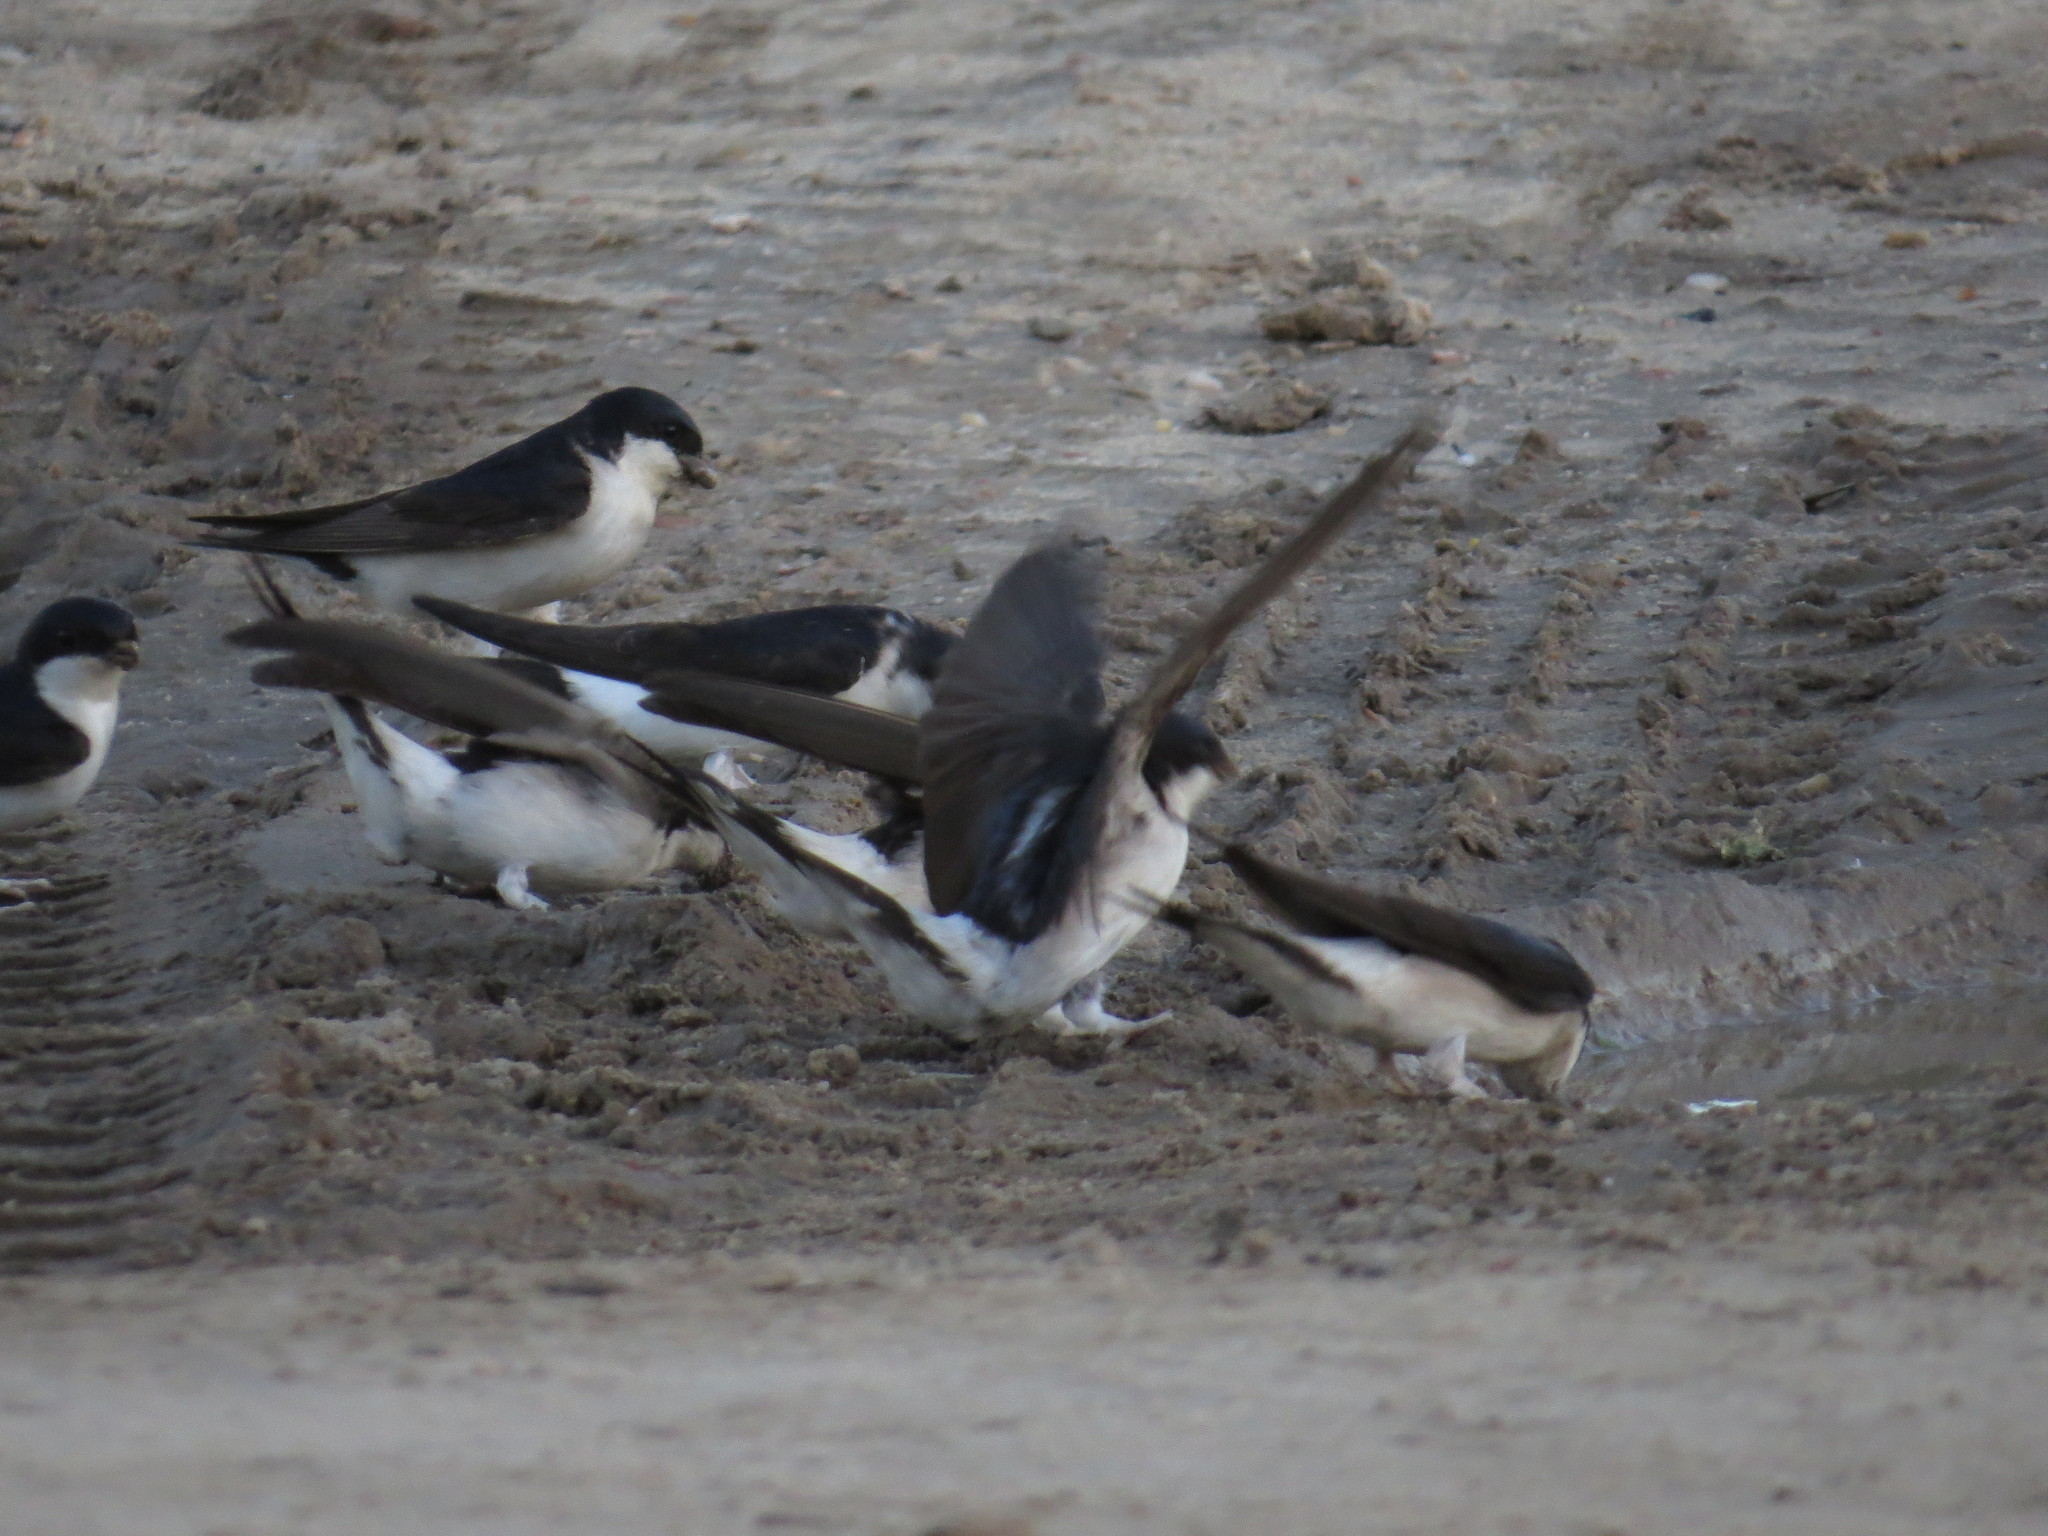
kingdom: Animalia
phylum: Chordata
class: Aves
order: Passeriformes
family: Hirundinidae
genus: Delichon
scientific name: Delichon urbicum
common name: Common house martin
